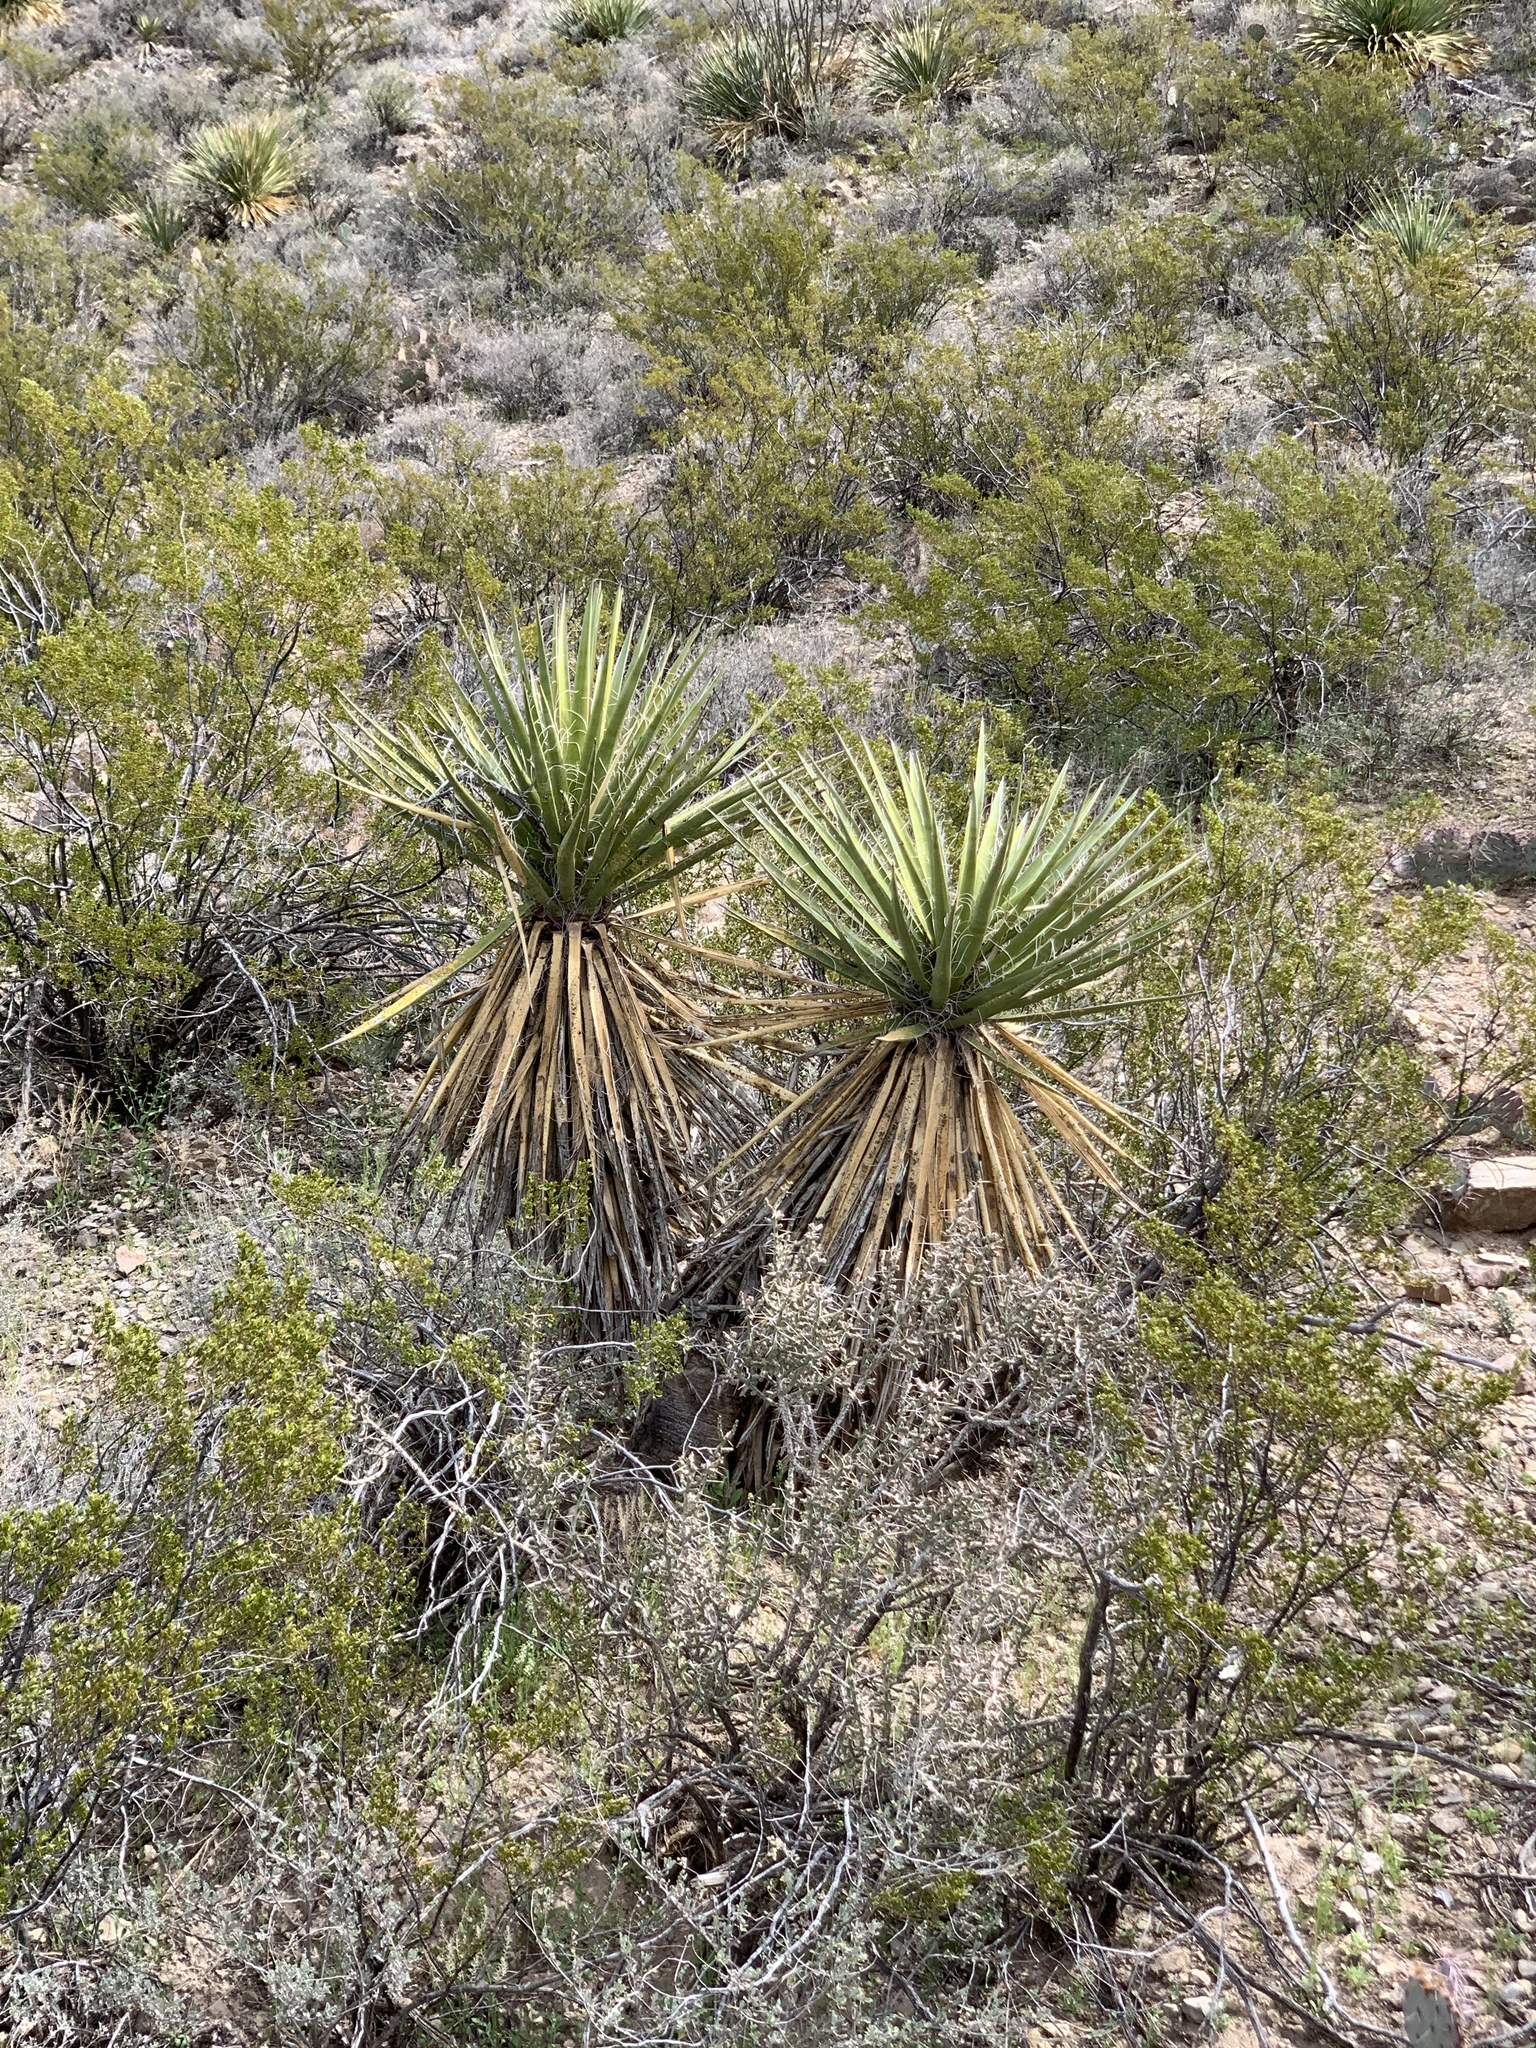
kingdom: Plantae
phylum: Tracheophyta
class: Liliopsida
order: Asparagales
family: Asparagaceae
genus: Yucca
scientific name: Yucca treculiana
